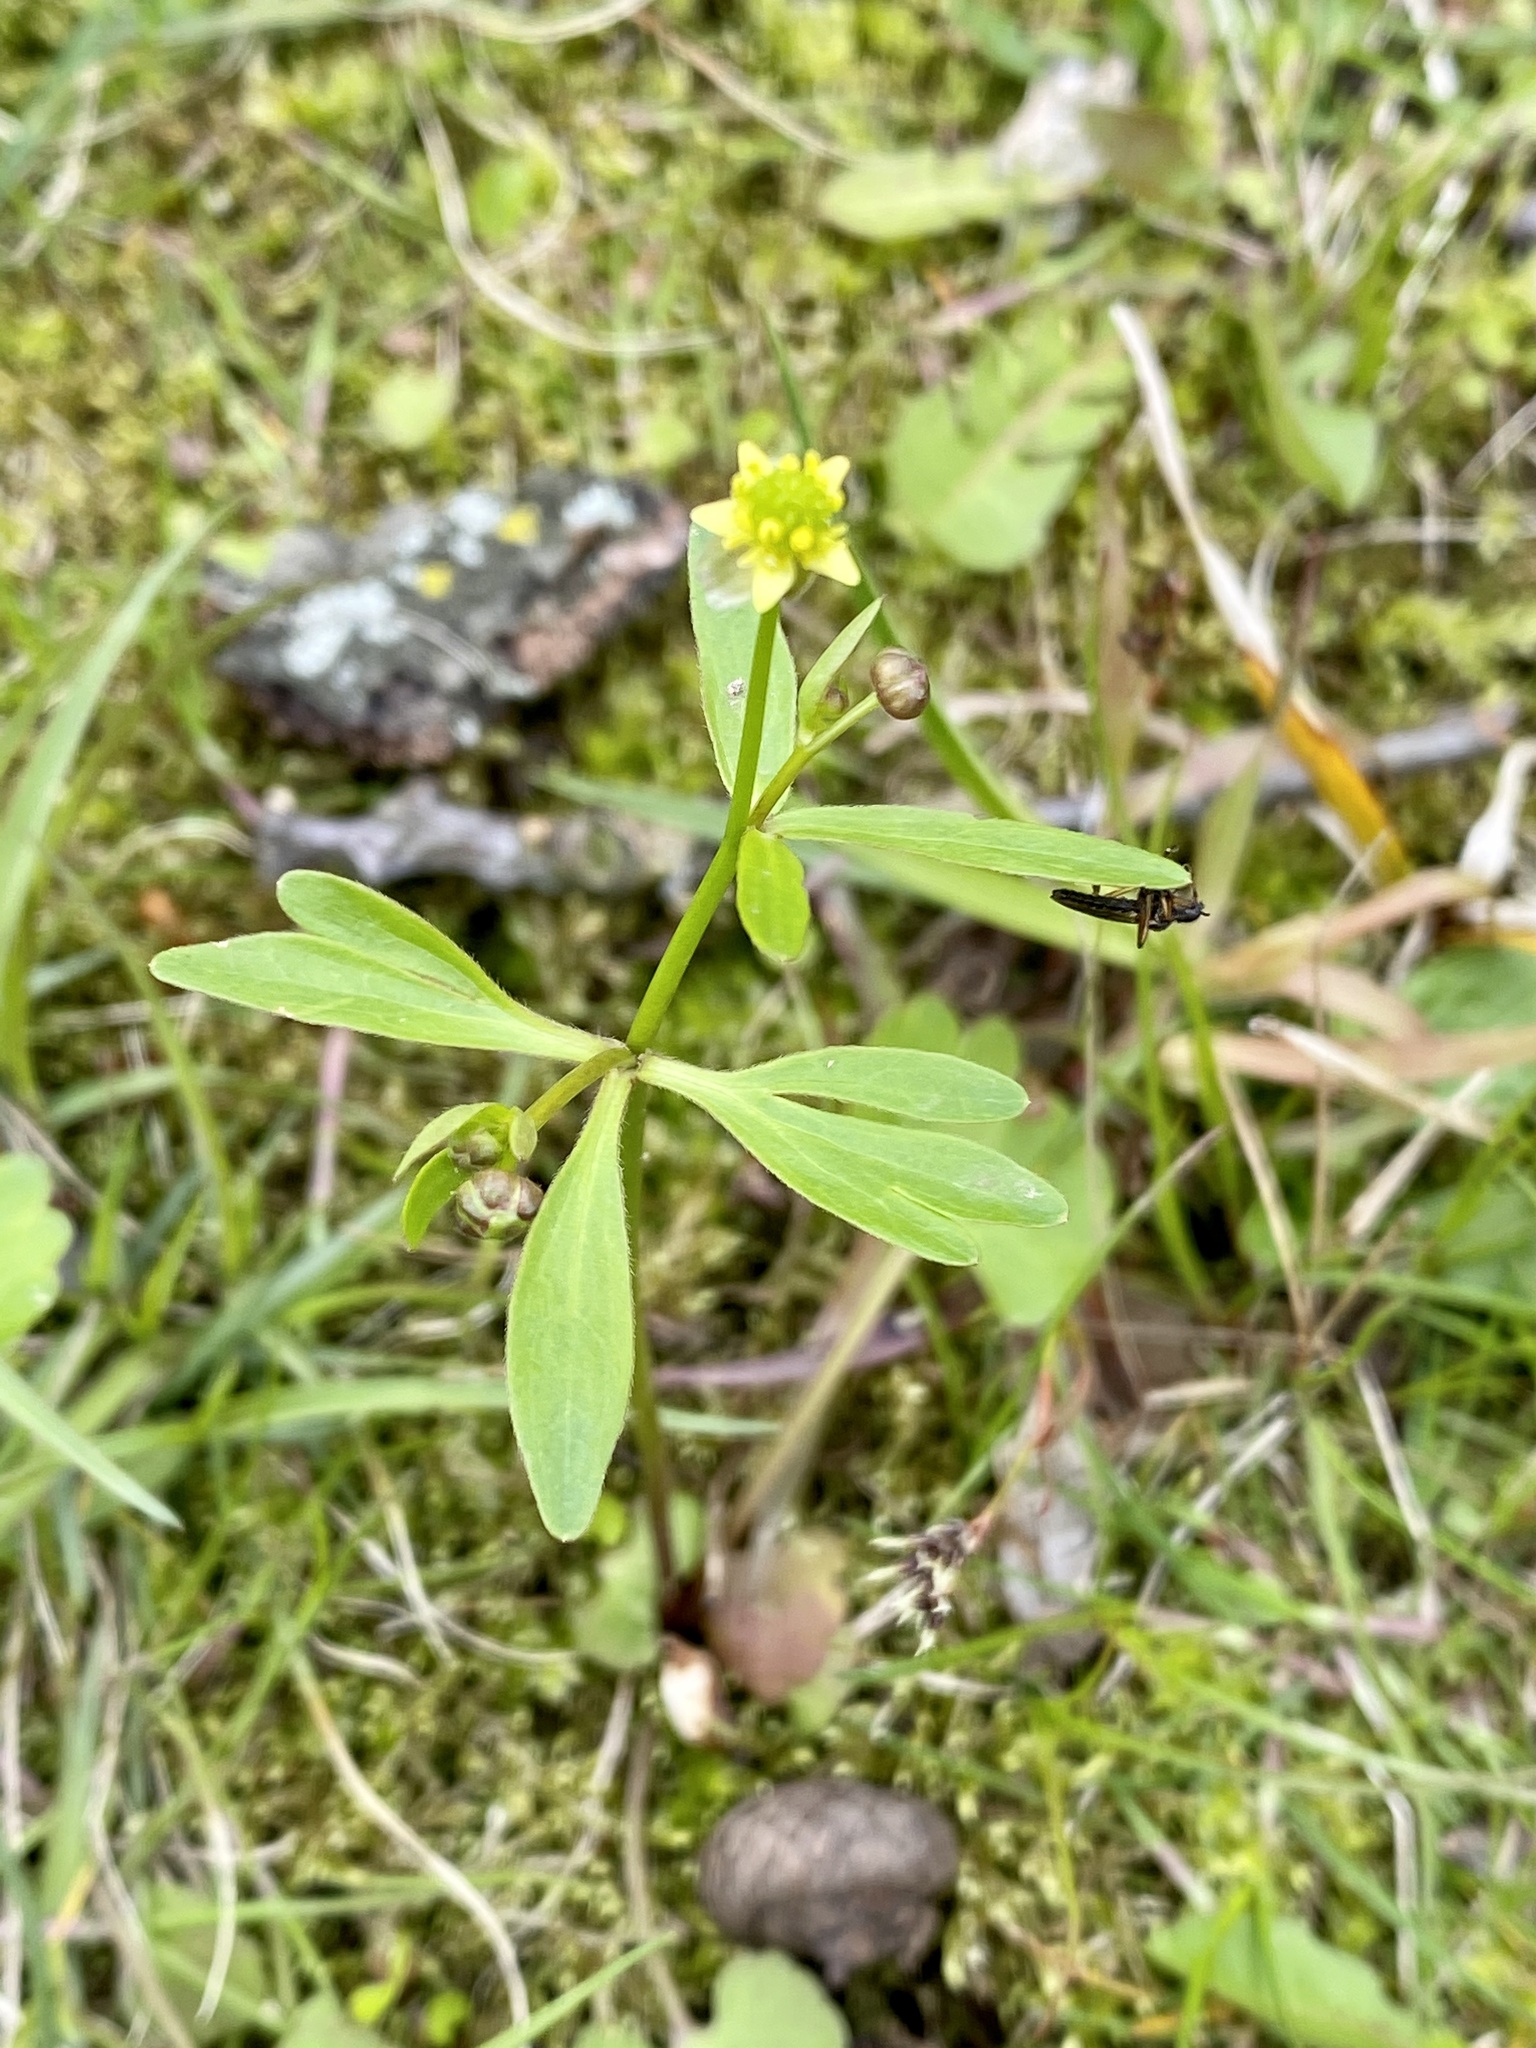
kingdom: Plantae
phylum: Tracheophyta
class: Magnoliopsida
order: Ranunculales
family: Ranunculaceae
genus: Ranunculus
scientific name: Ranunculus abortivus
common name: Early wood buttercup
